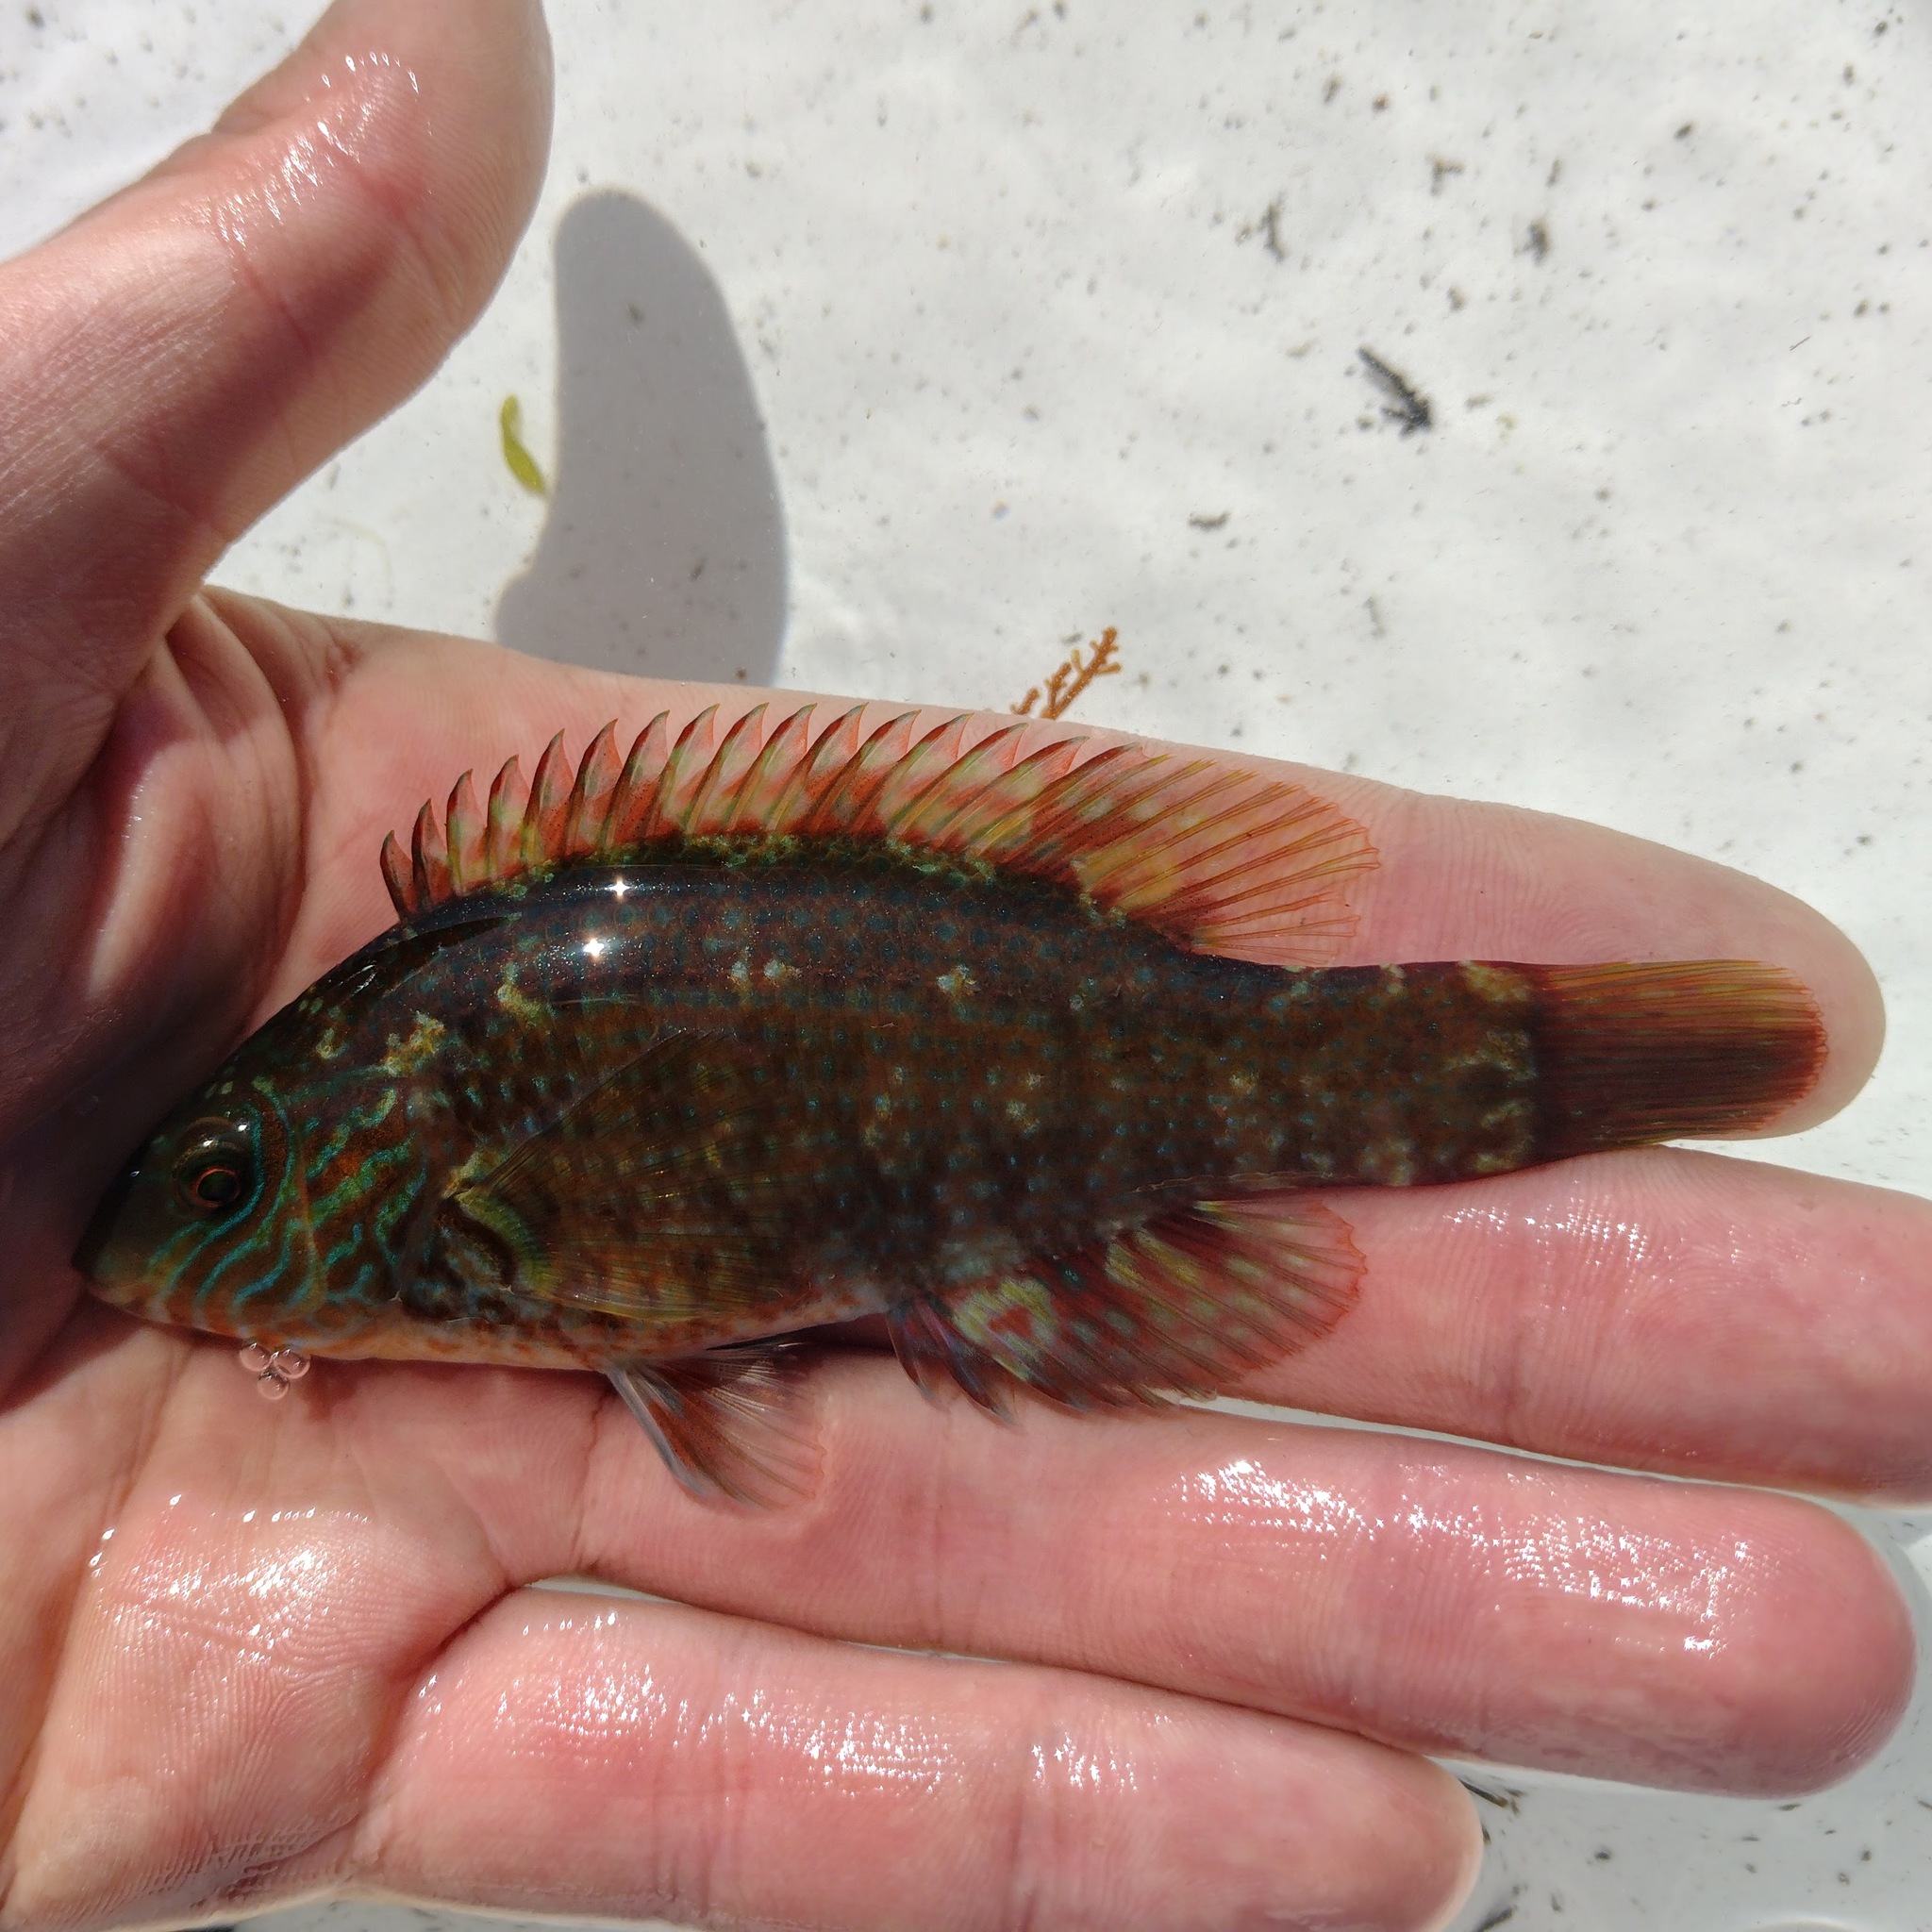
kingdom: Animalia
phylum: Chordata
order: Perciformes
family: Labridae
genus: Symphodus
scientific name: Symphodus melops
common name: Corkwing
